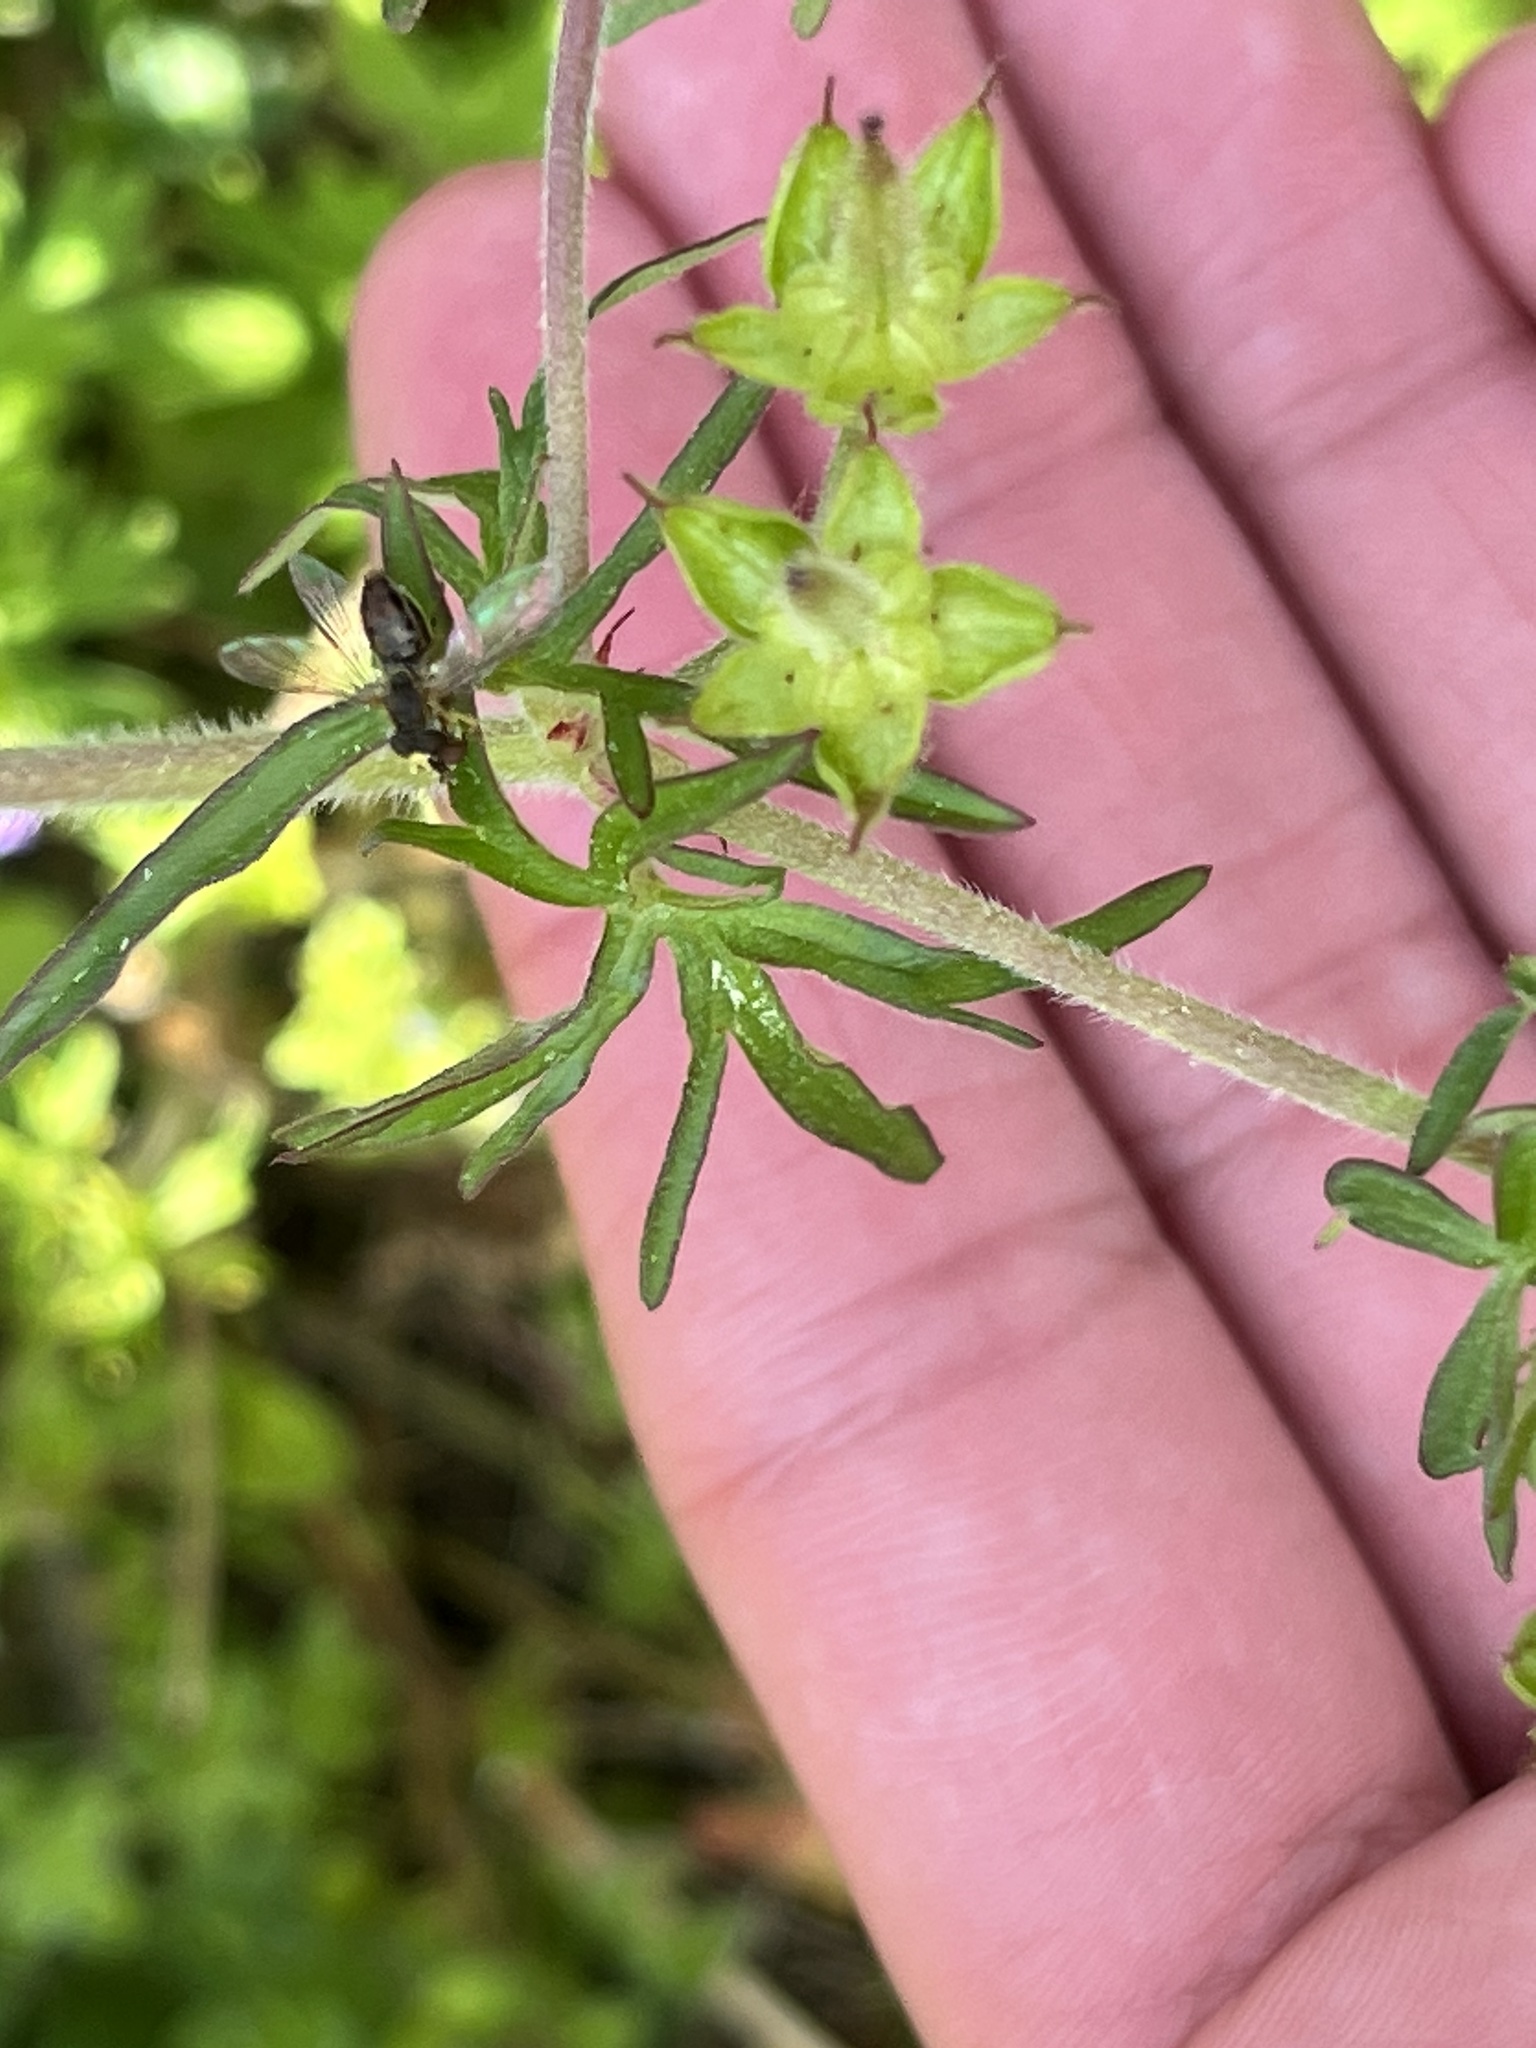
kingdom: Animalia
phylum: Arthropoda
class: Insecta
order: Diptera
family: Syrphidae
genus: Toxomerus
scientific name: Toxomerus marginatus
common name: Syrphid fly
